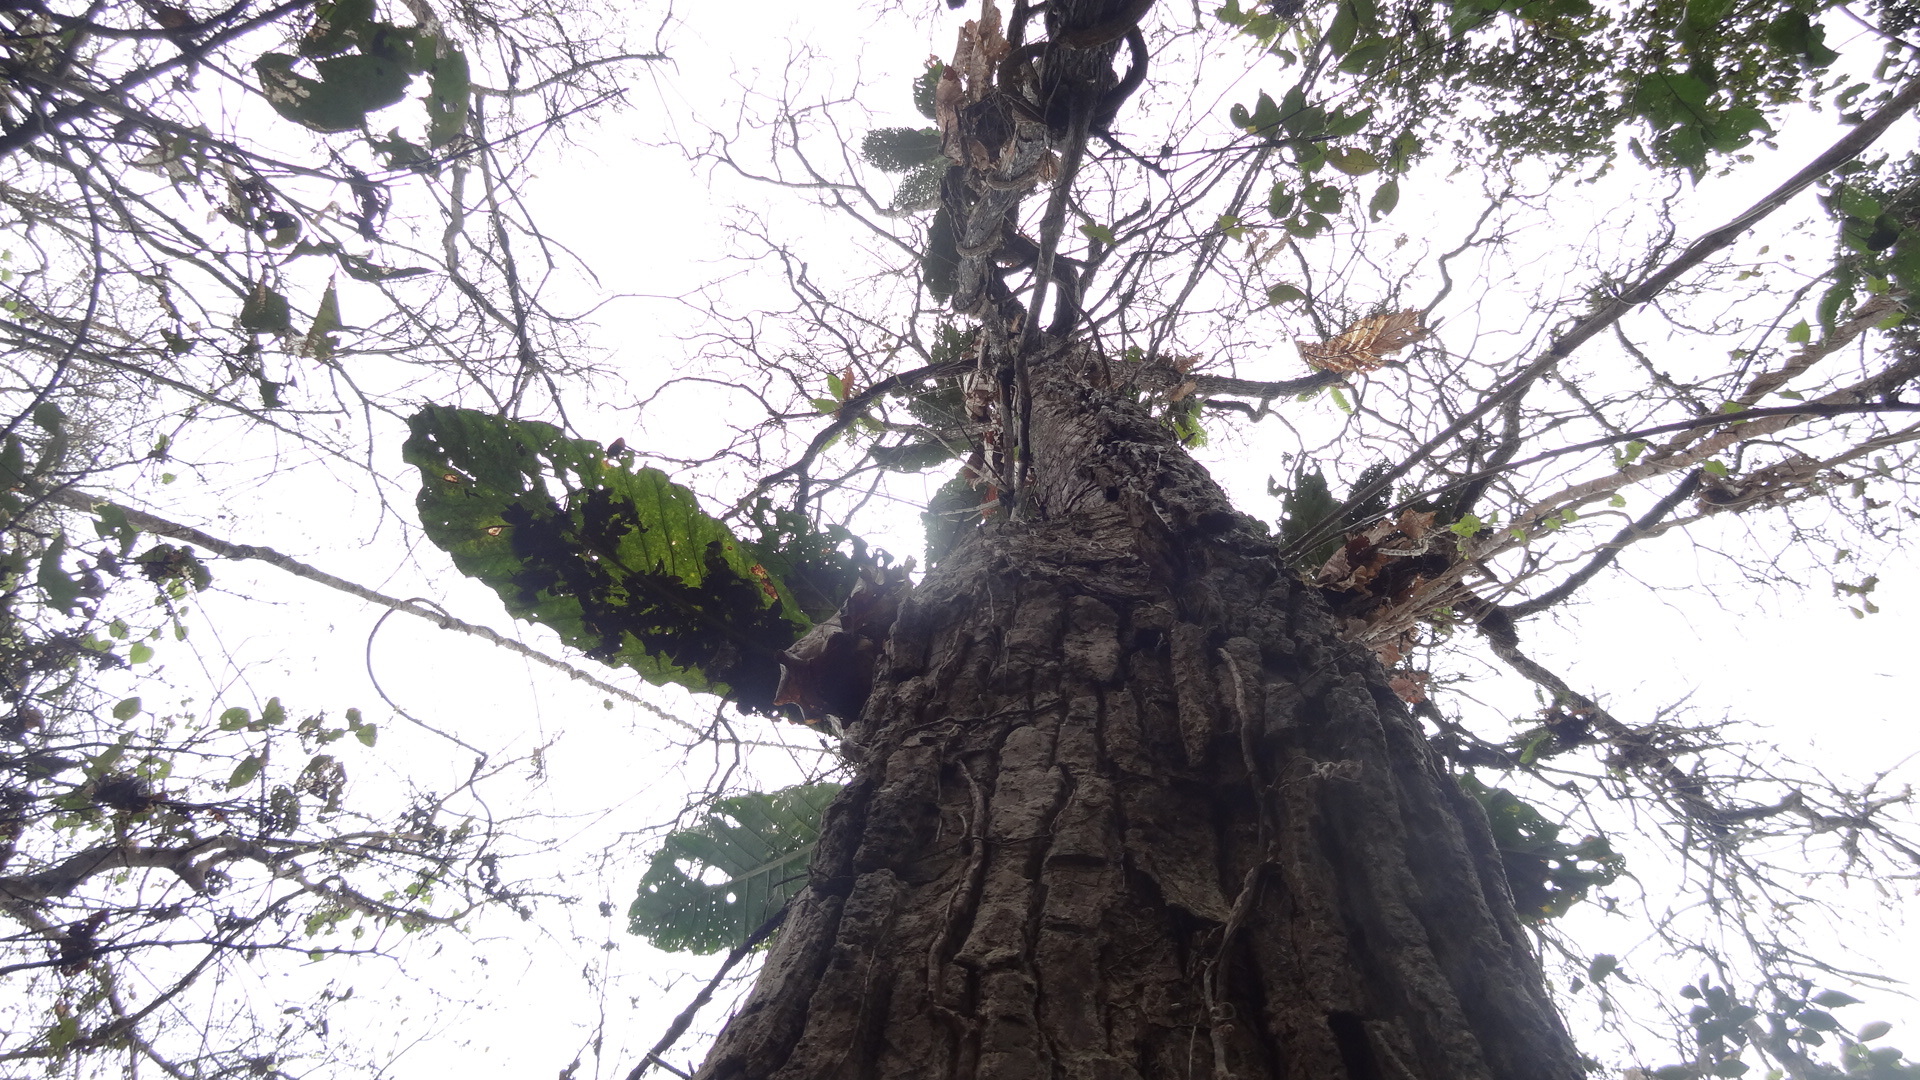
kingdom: Plantae
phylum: Tracheophyta
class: Magnoliopsida
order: Lamiales
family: Bignoniaceae
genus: Handroanthus
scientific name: Handroanthus chrysanthus
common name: Trumpet trees
